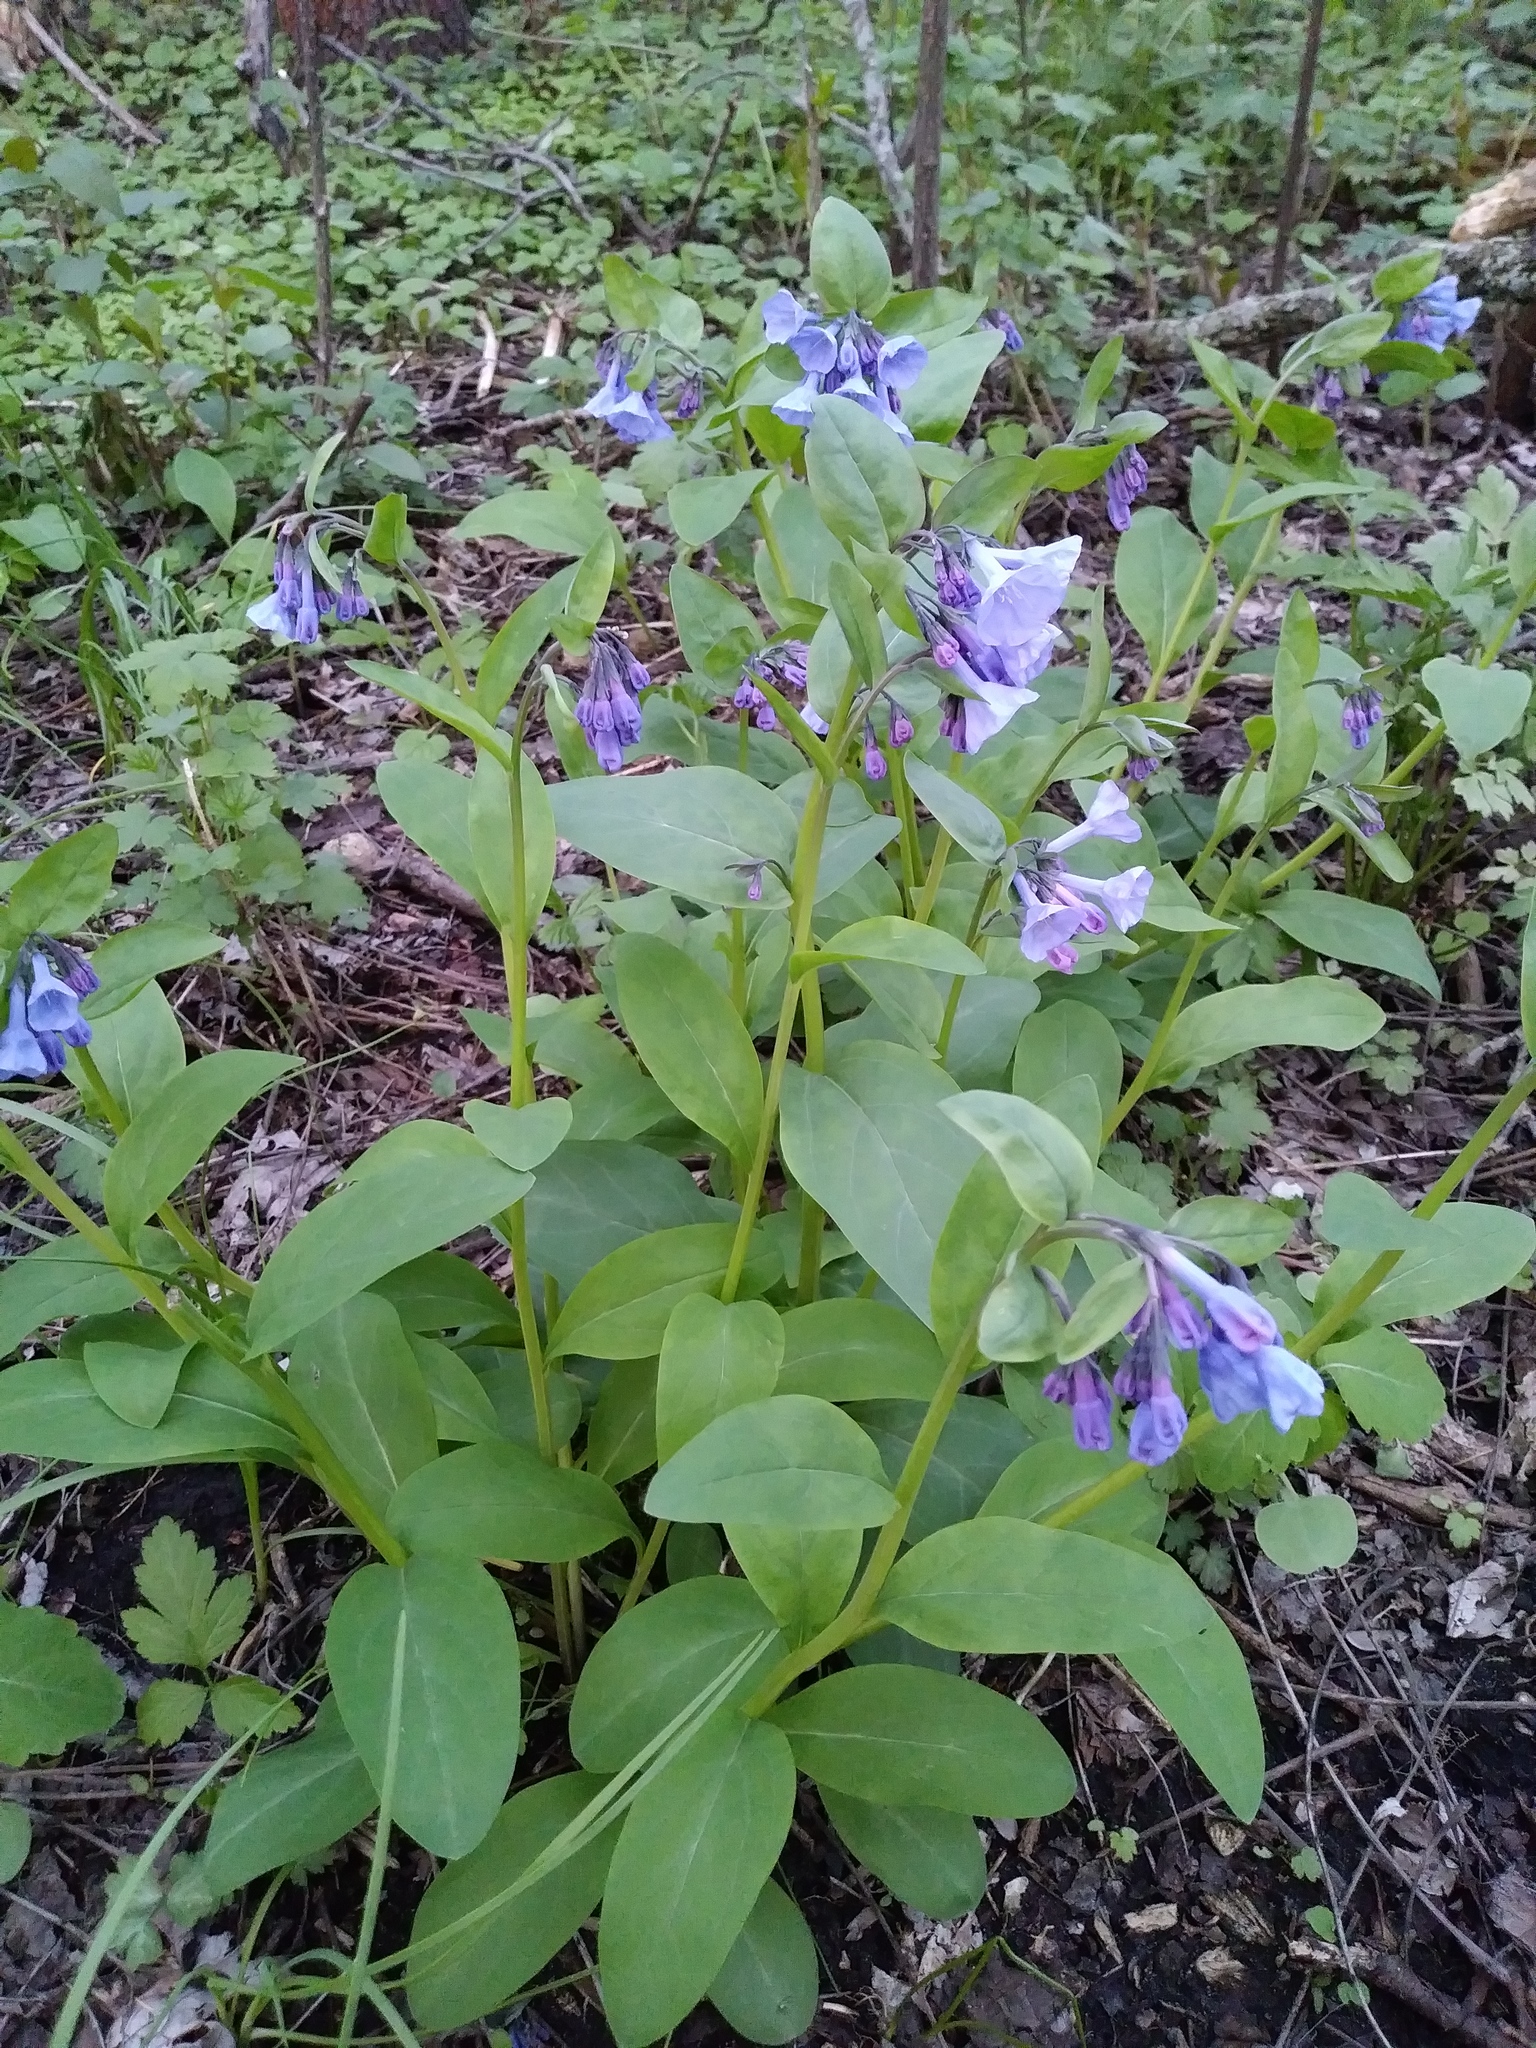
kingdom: Plantae
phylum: Tracheophyta
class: Magnoliopsida
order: Boraginales
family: Boraginaceae
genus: Mertensia
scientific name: Mertensia virginica
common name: Virginia bluebells
